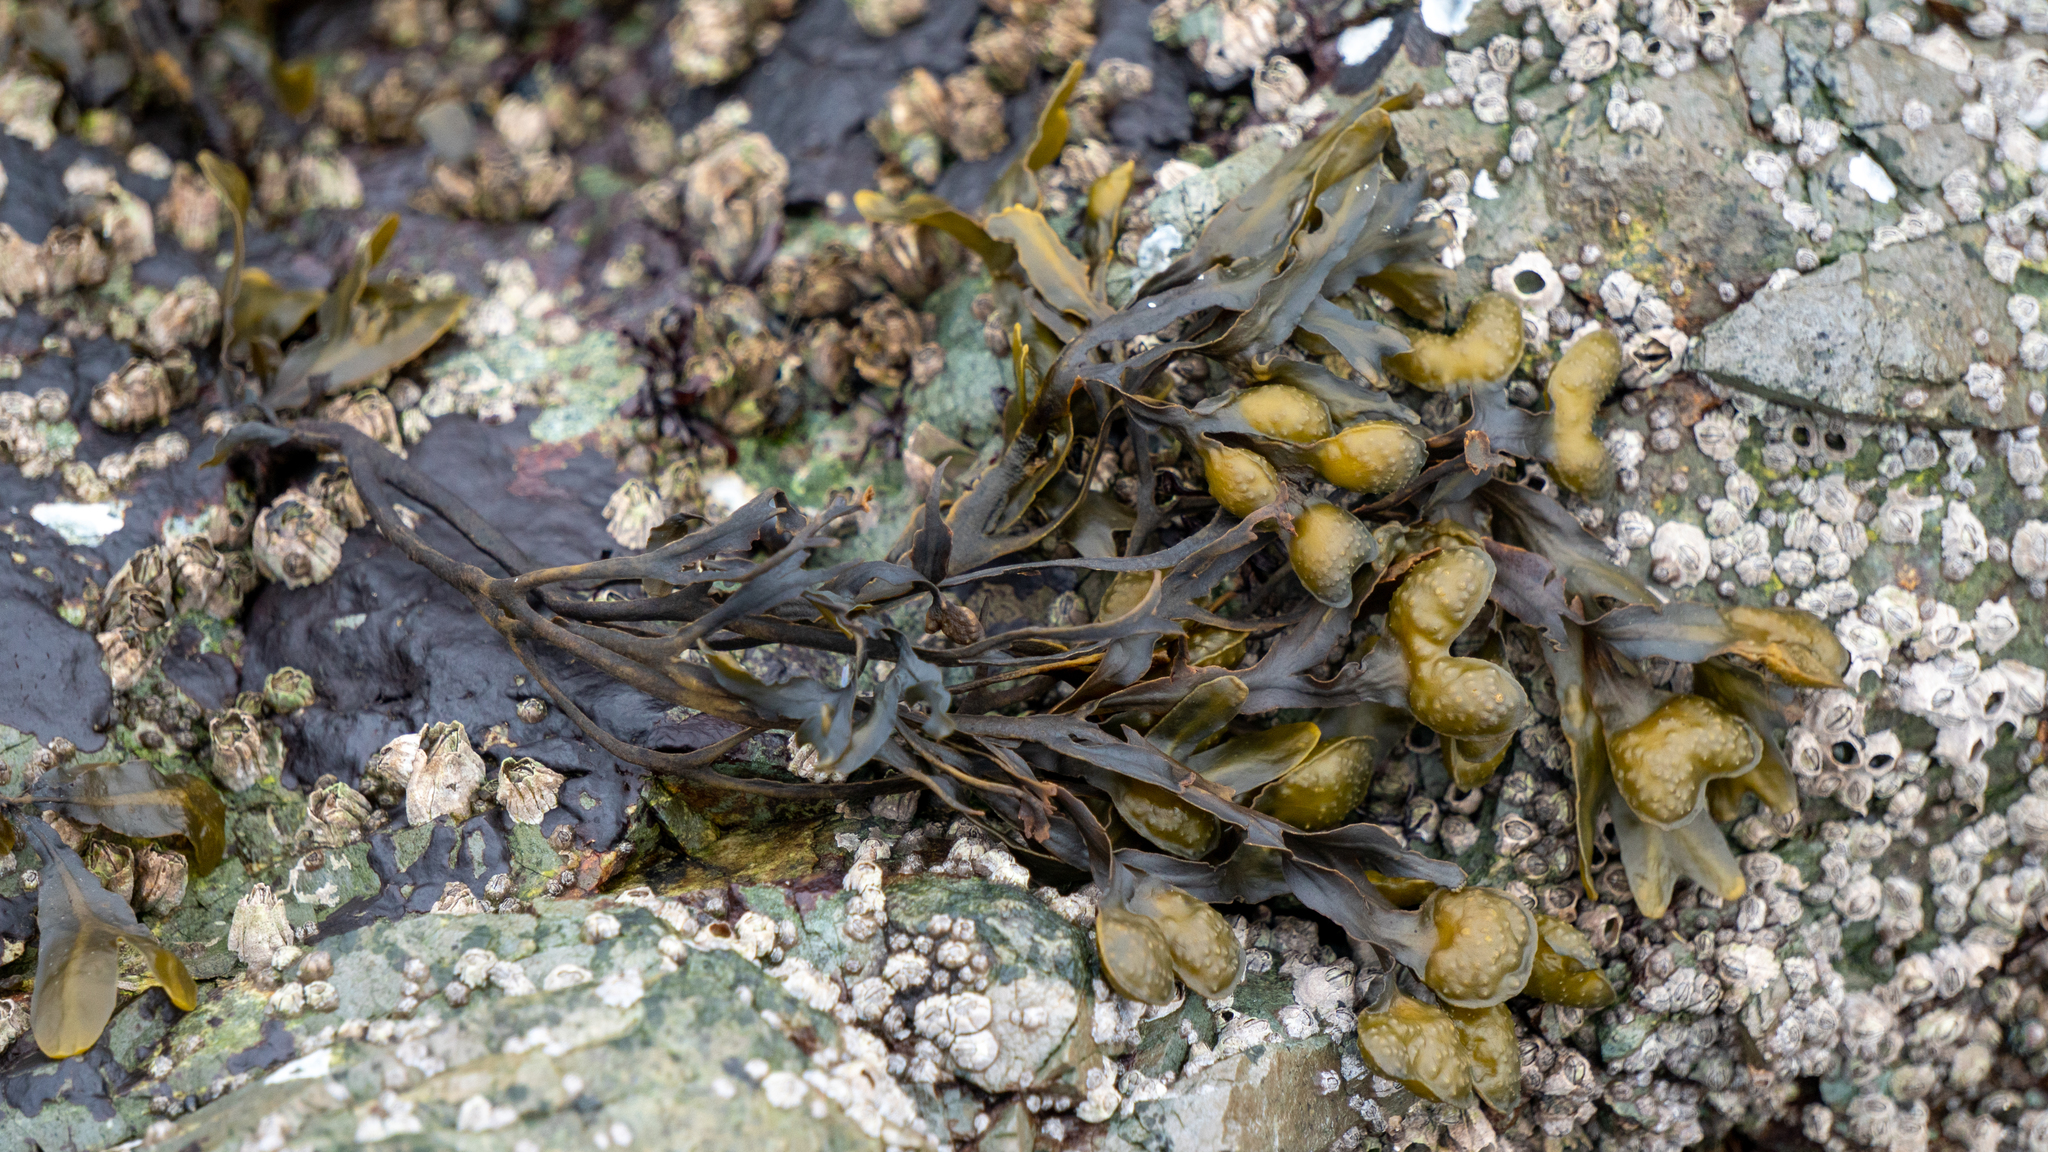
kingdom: Chromista
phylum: Ochrophyta
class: Phaeophyceae
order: Fucales
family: Fucaceae
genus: Fucus
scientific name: Fucus distichus
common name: Rockweed
